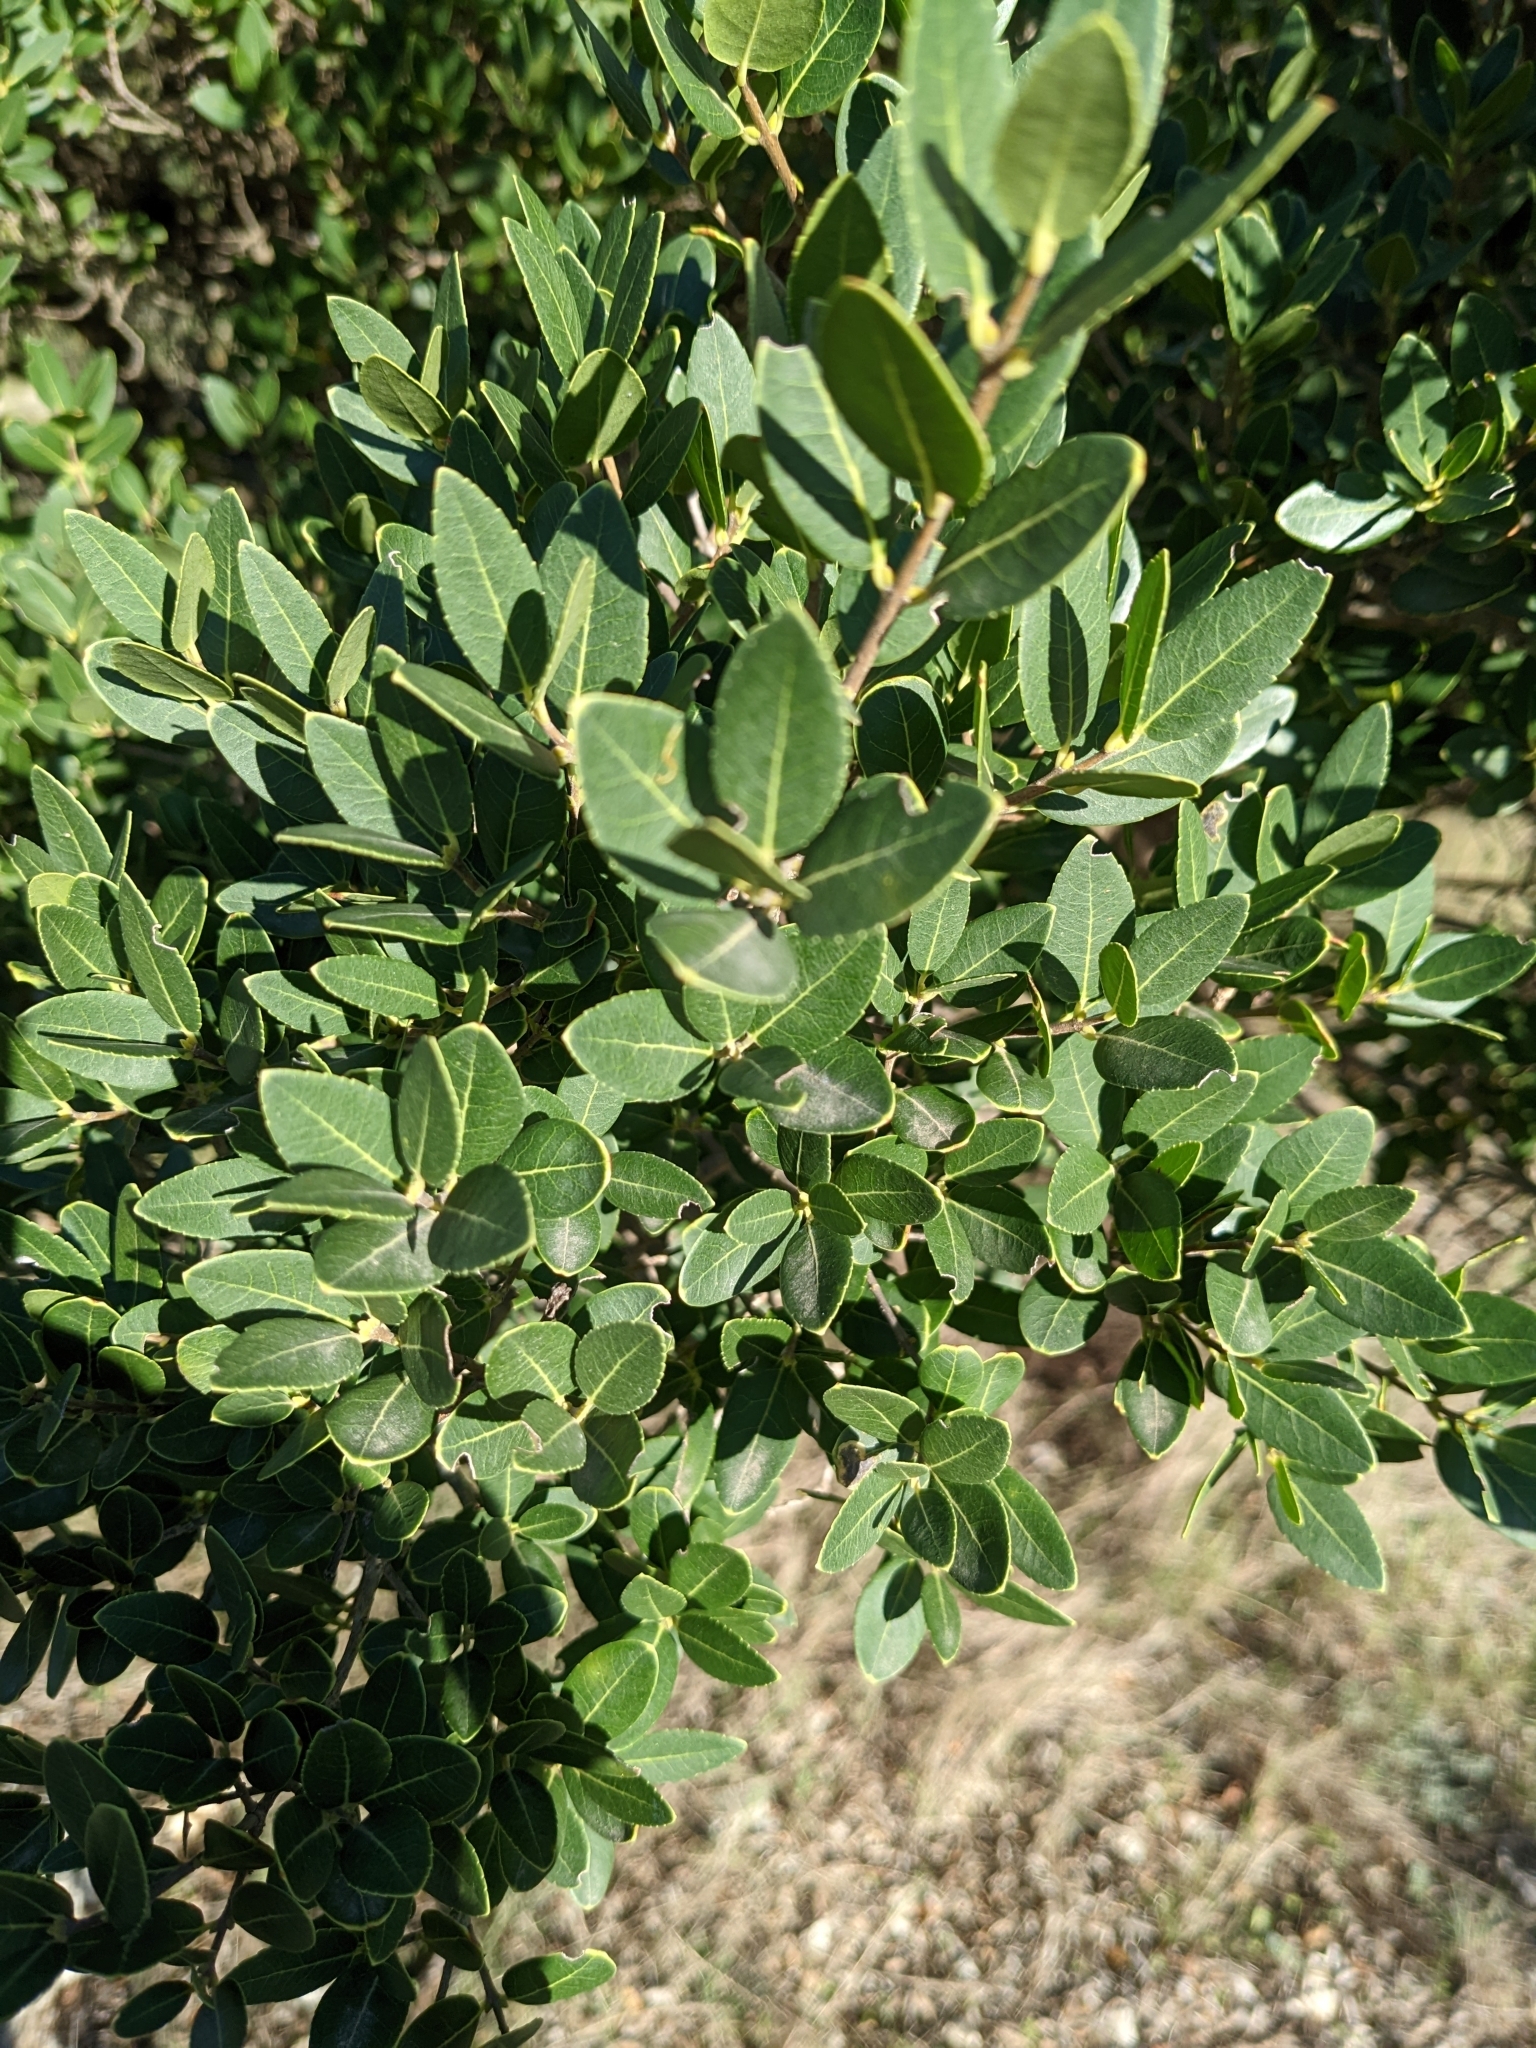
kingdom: Plantae
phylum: Tracheophyta
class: Magnoliopsida
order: Lamiales
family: Oleaceae
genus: Phillyrea
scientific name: Phillyrea latifolia
